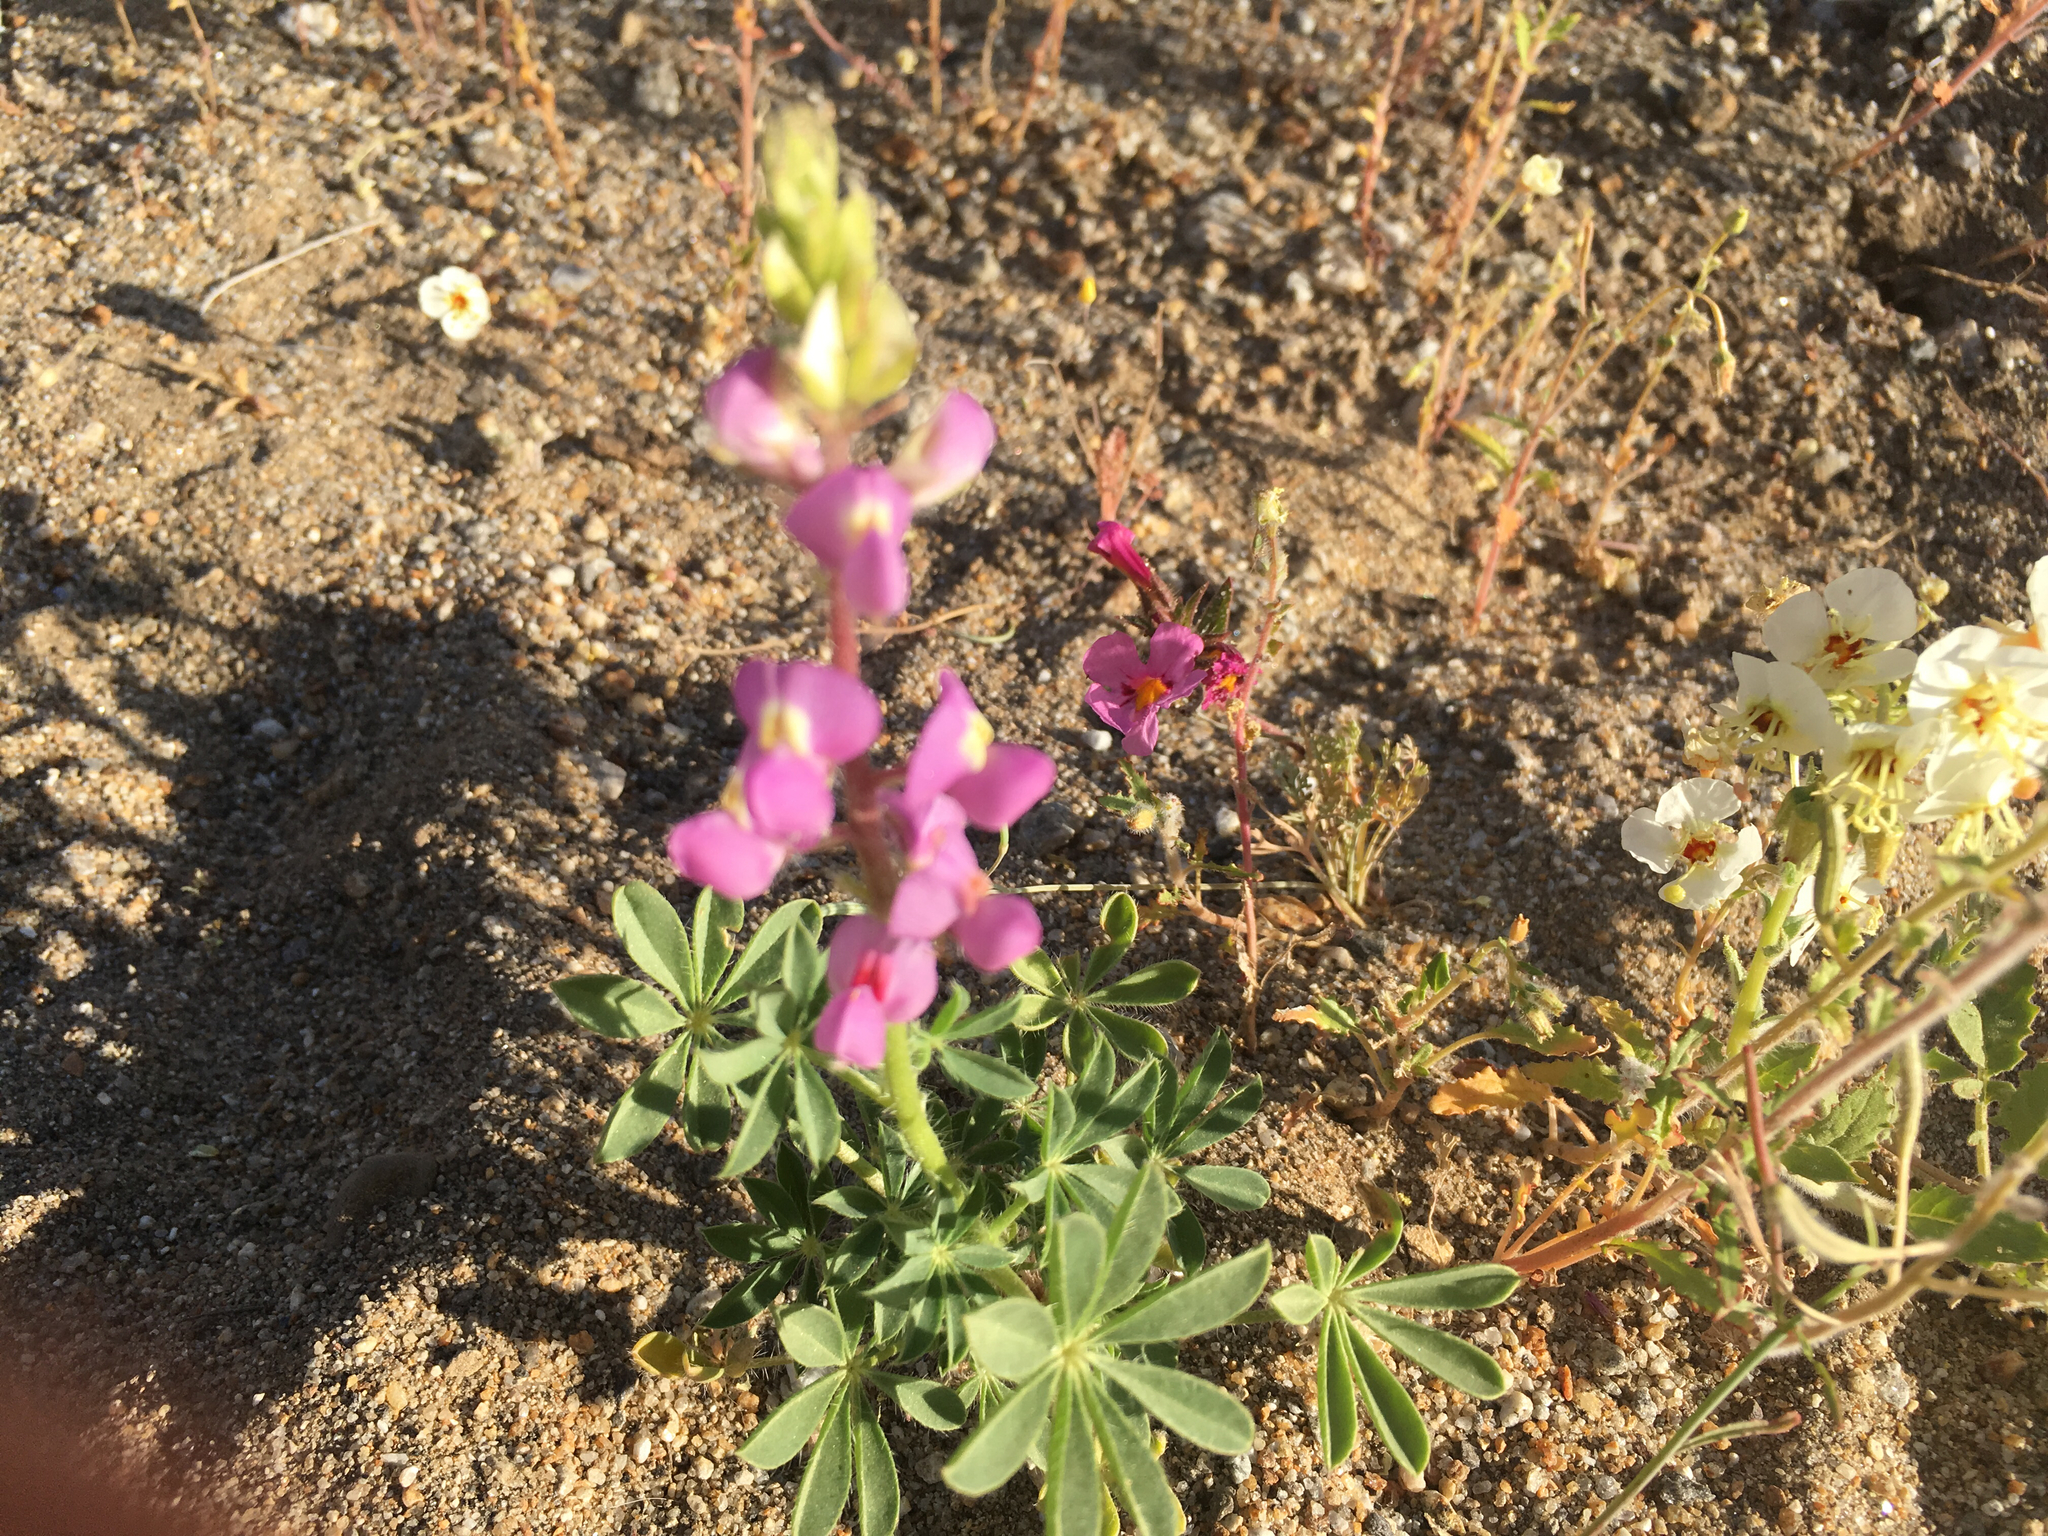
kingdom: Plantae
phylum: Tracheophyta
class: Magnoliopsida
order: Fabales
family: Fabaceae
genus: Lupinus
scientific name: Lupinus arizonicus
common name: Arizona lupine
